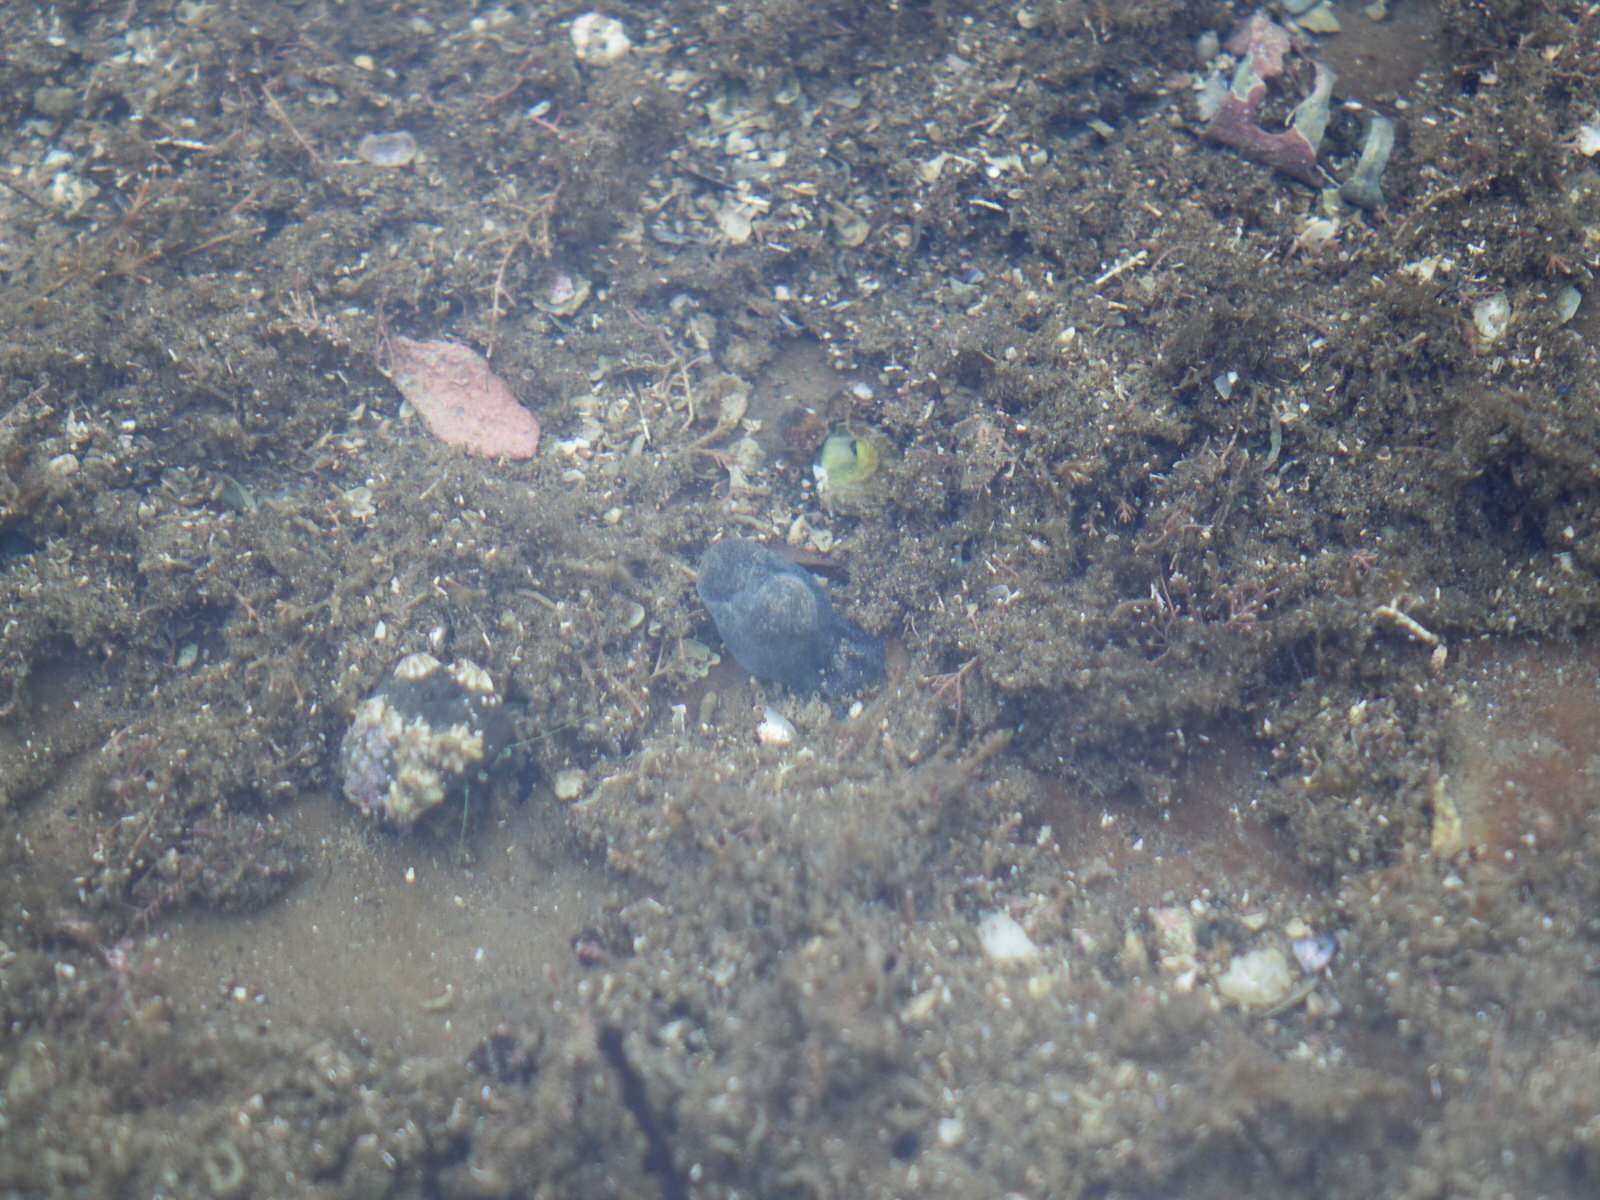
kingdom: Animalia
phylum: Mollusca
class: Gastropoda
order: Cephalaspidea
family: Haminoeidae
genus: Papawera
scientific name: Papawera zelandiae
